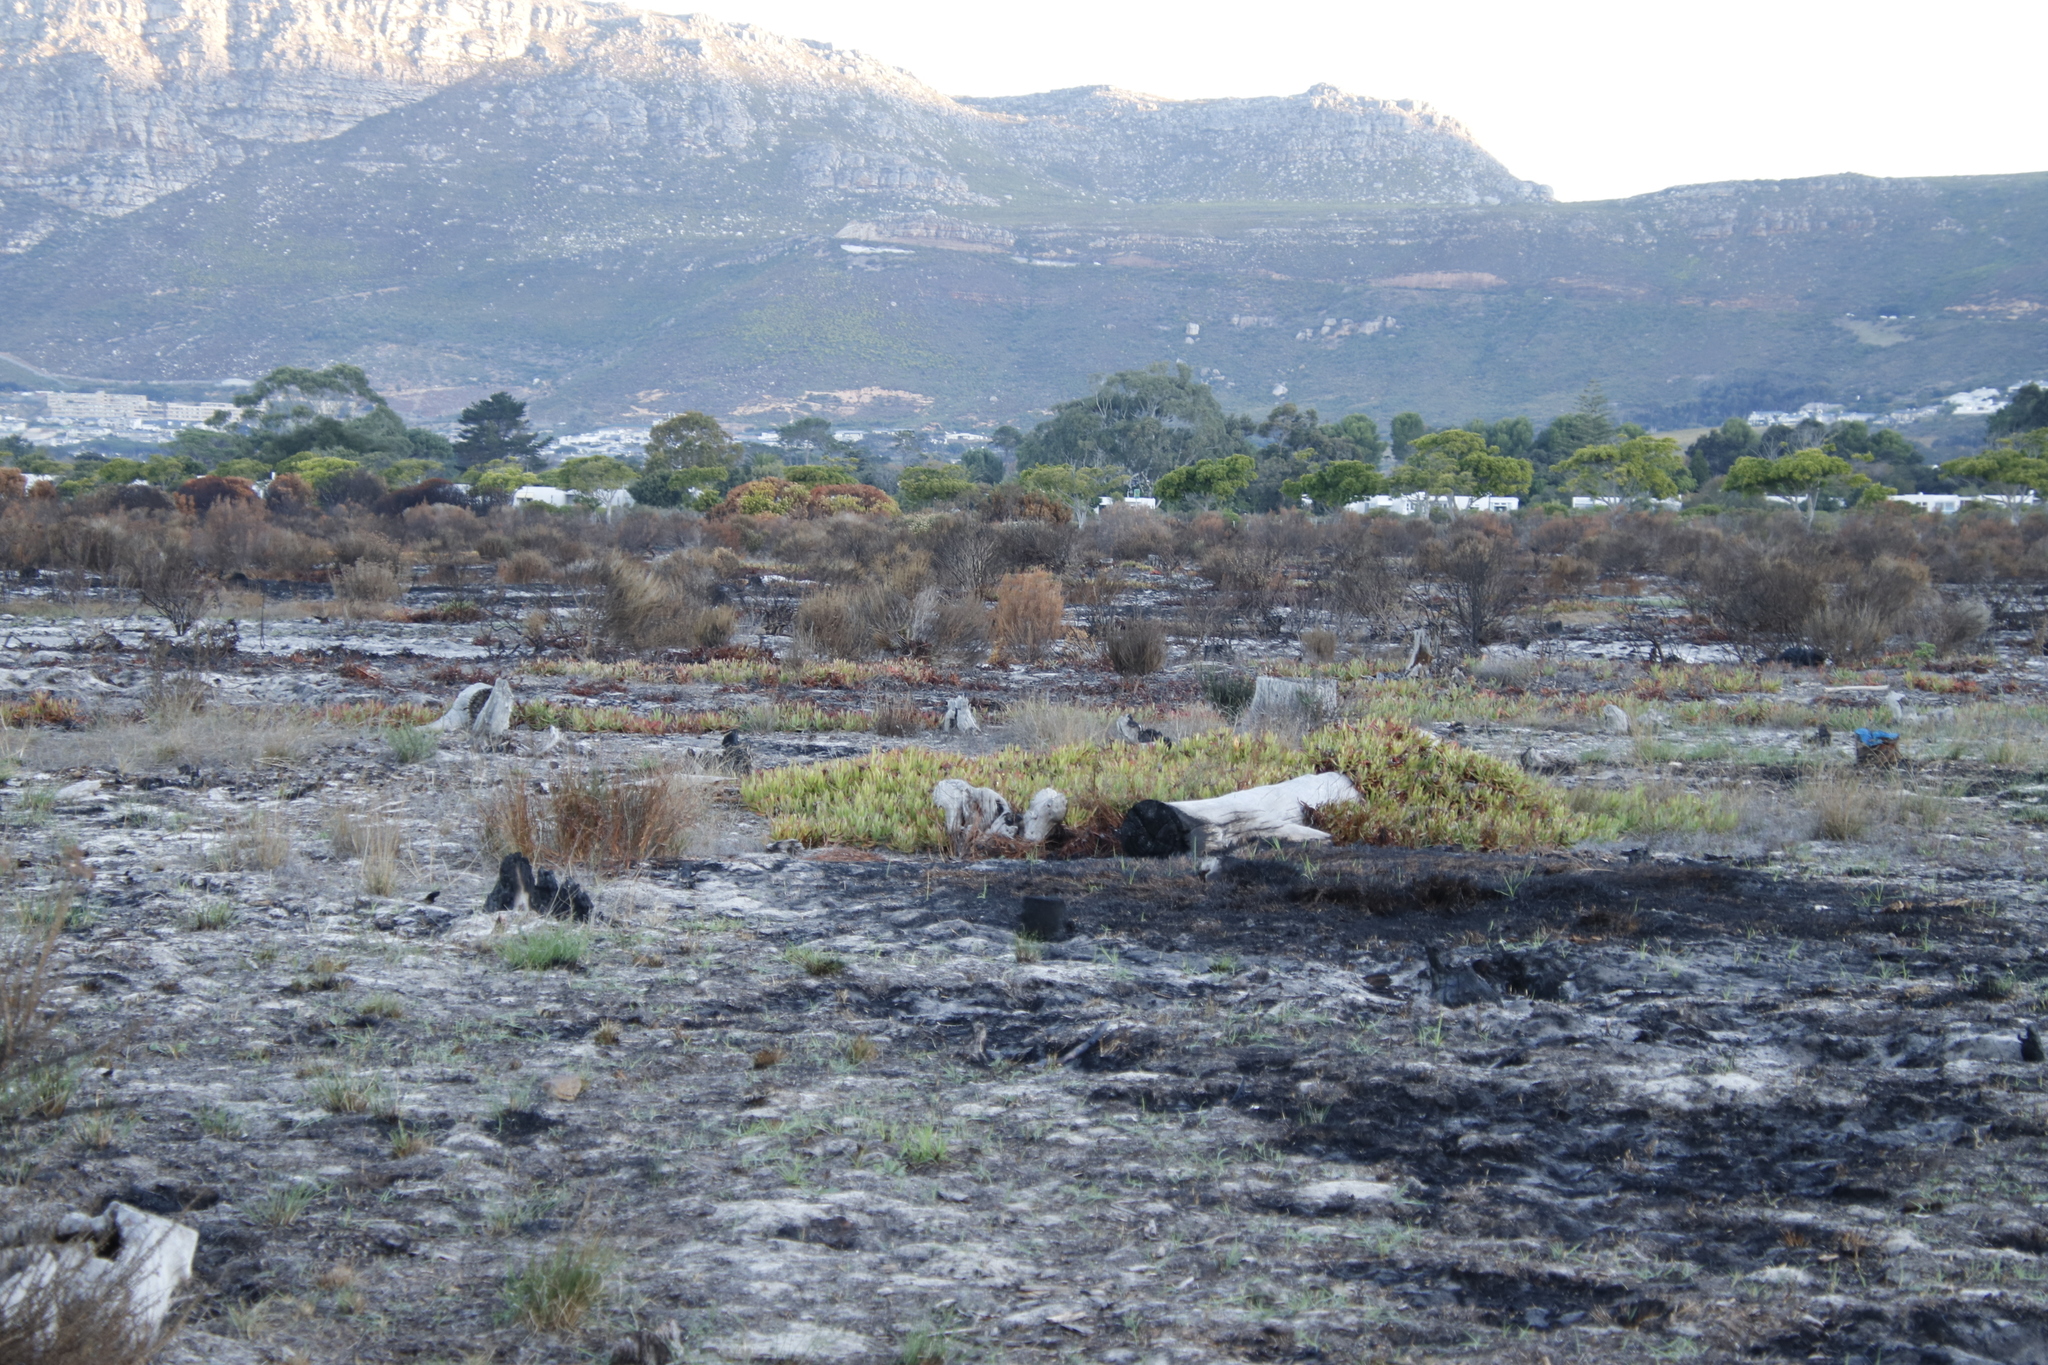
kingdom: Plantae
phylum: Tracheophyta
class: Magnoliopsida
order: Caryophyllales
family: Aizoaceae
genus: Carpobrotus
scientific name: Carpobrotus edulis
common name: Hottentot-fig
